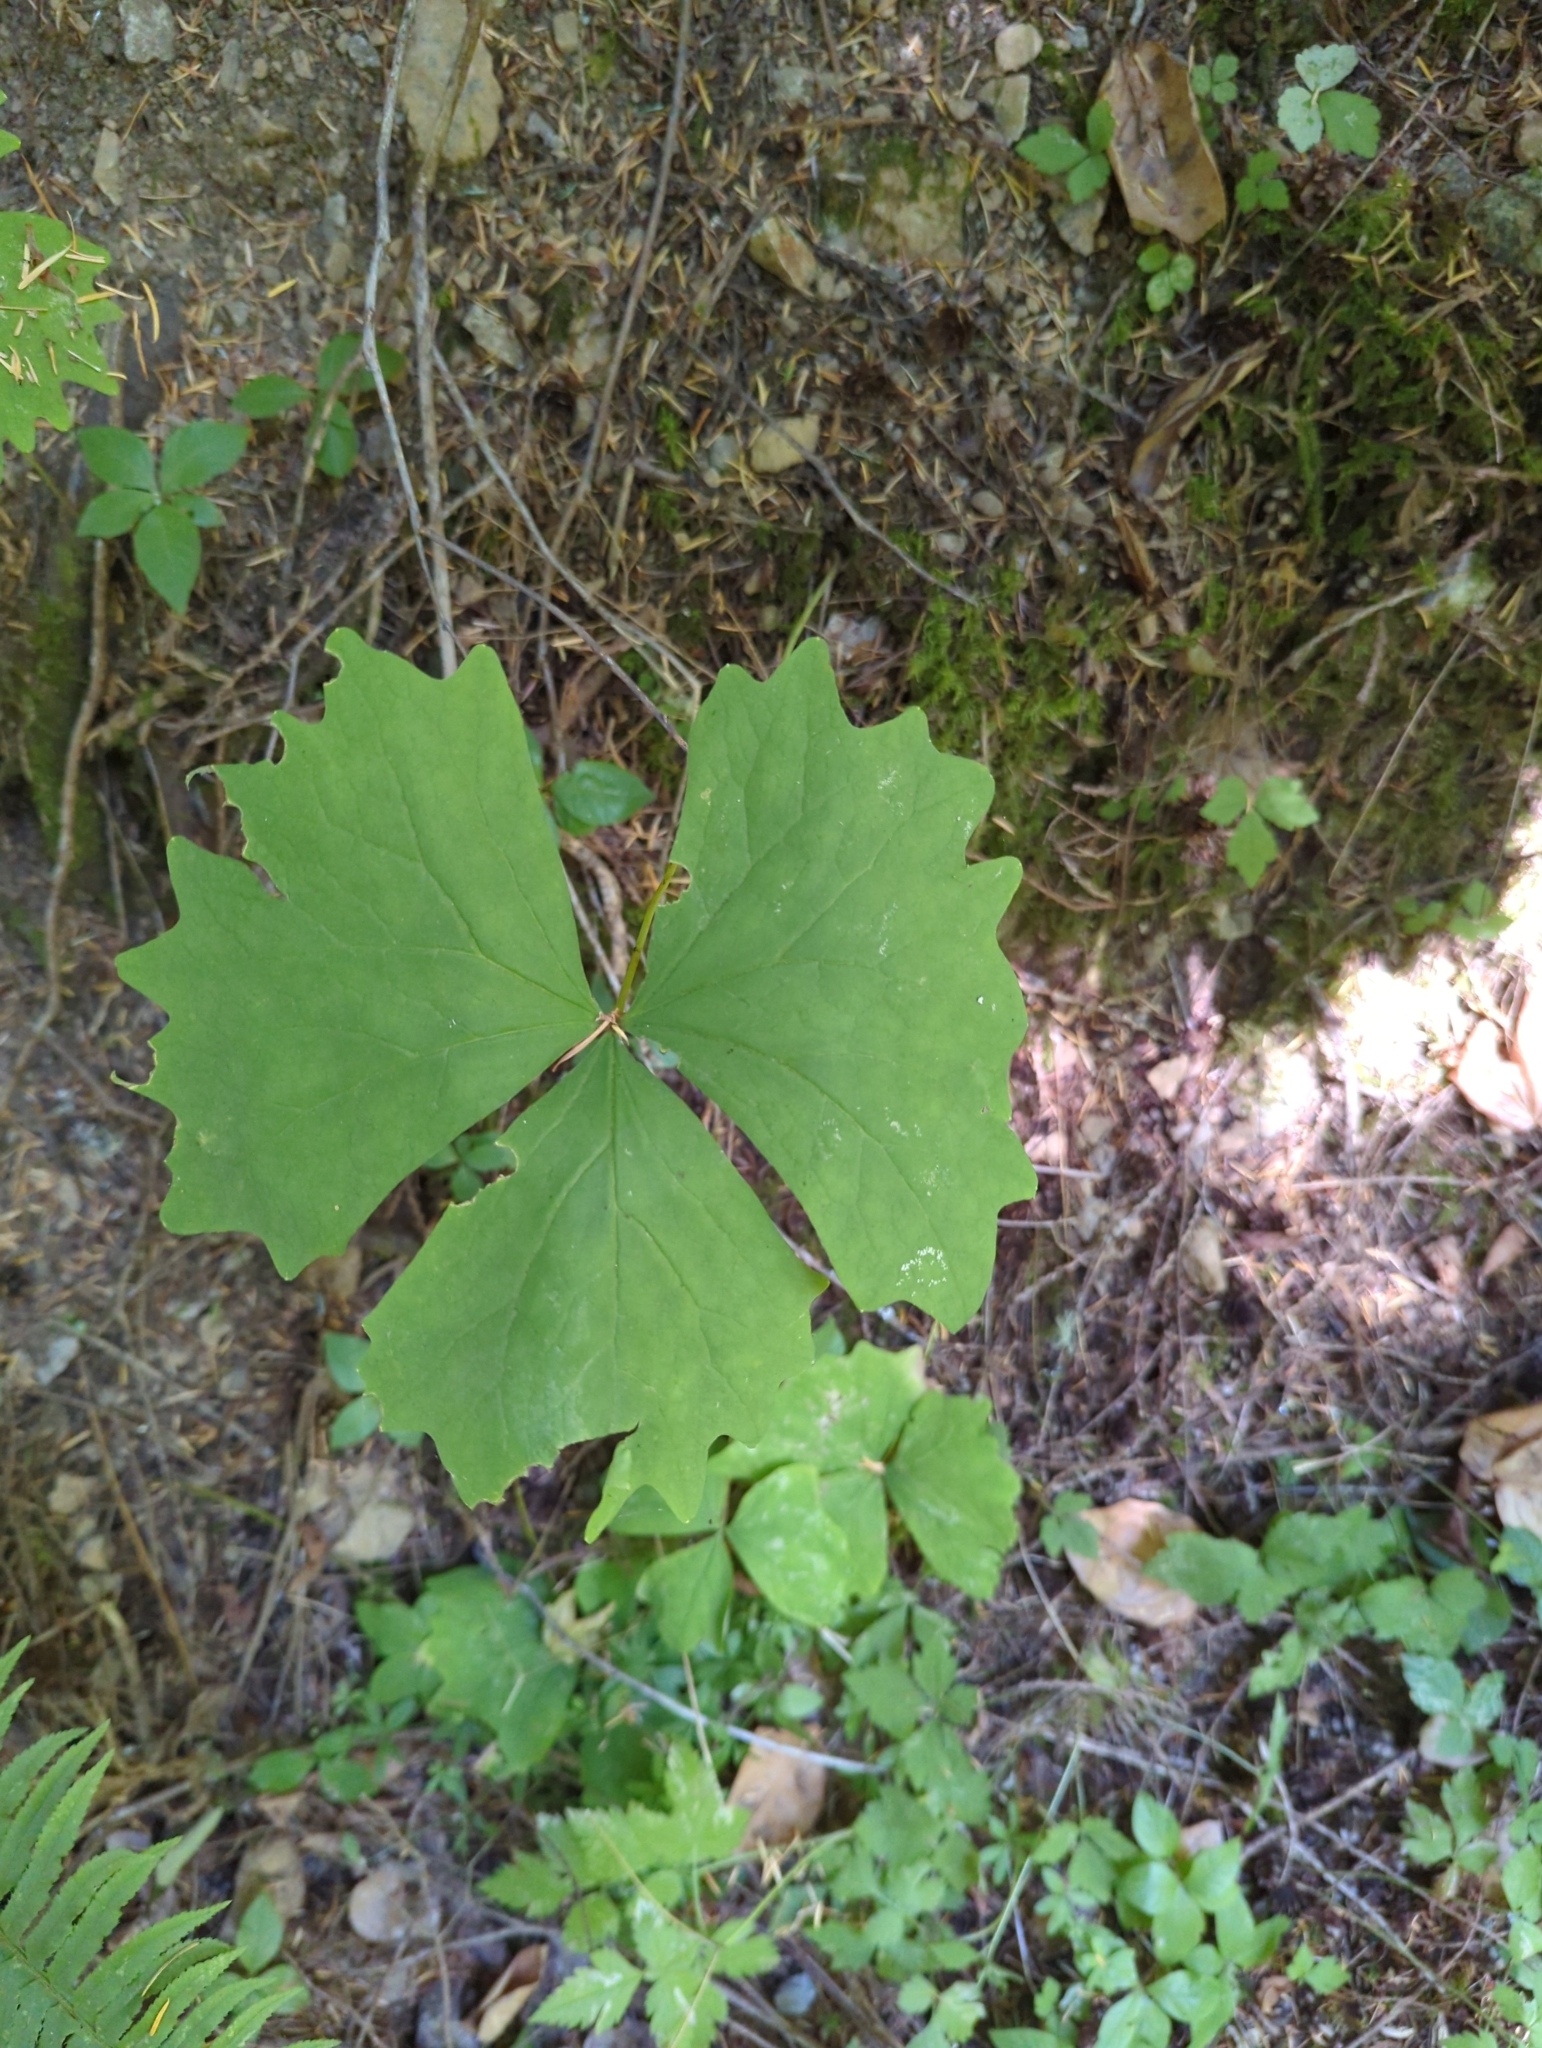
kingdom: Plantae
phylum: Tracheophyta
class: Magnoliopsida
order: Ranunculales
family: Berberidaceae
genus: Achlys
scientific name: Achlys triphylla
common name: Vanilla-leaf
